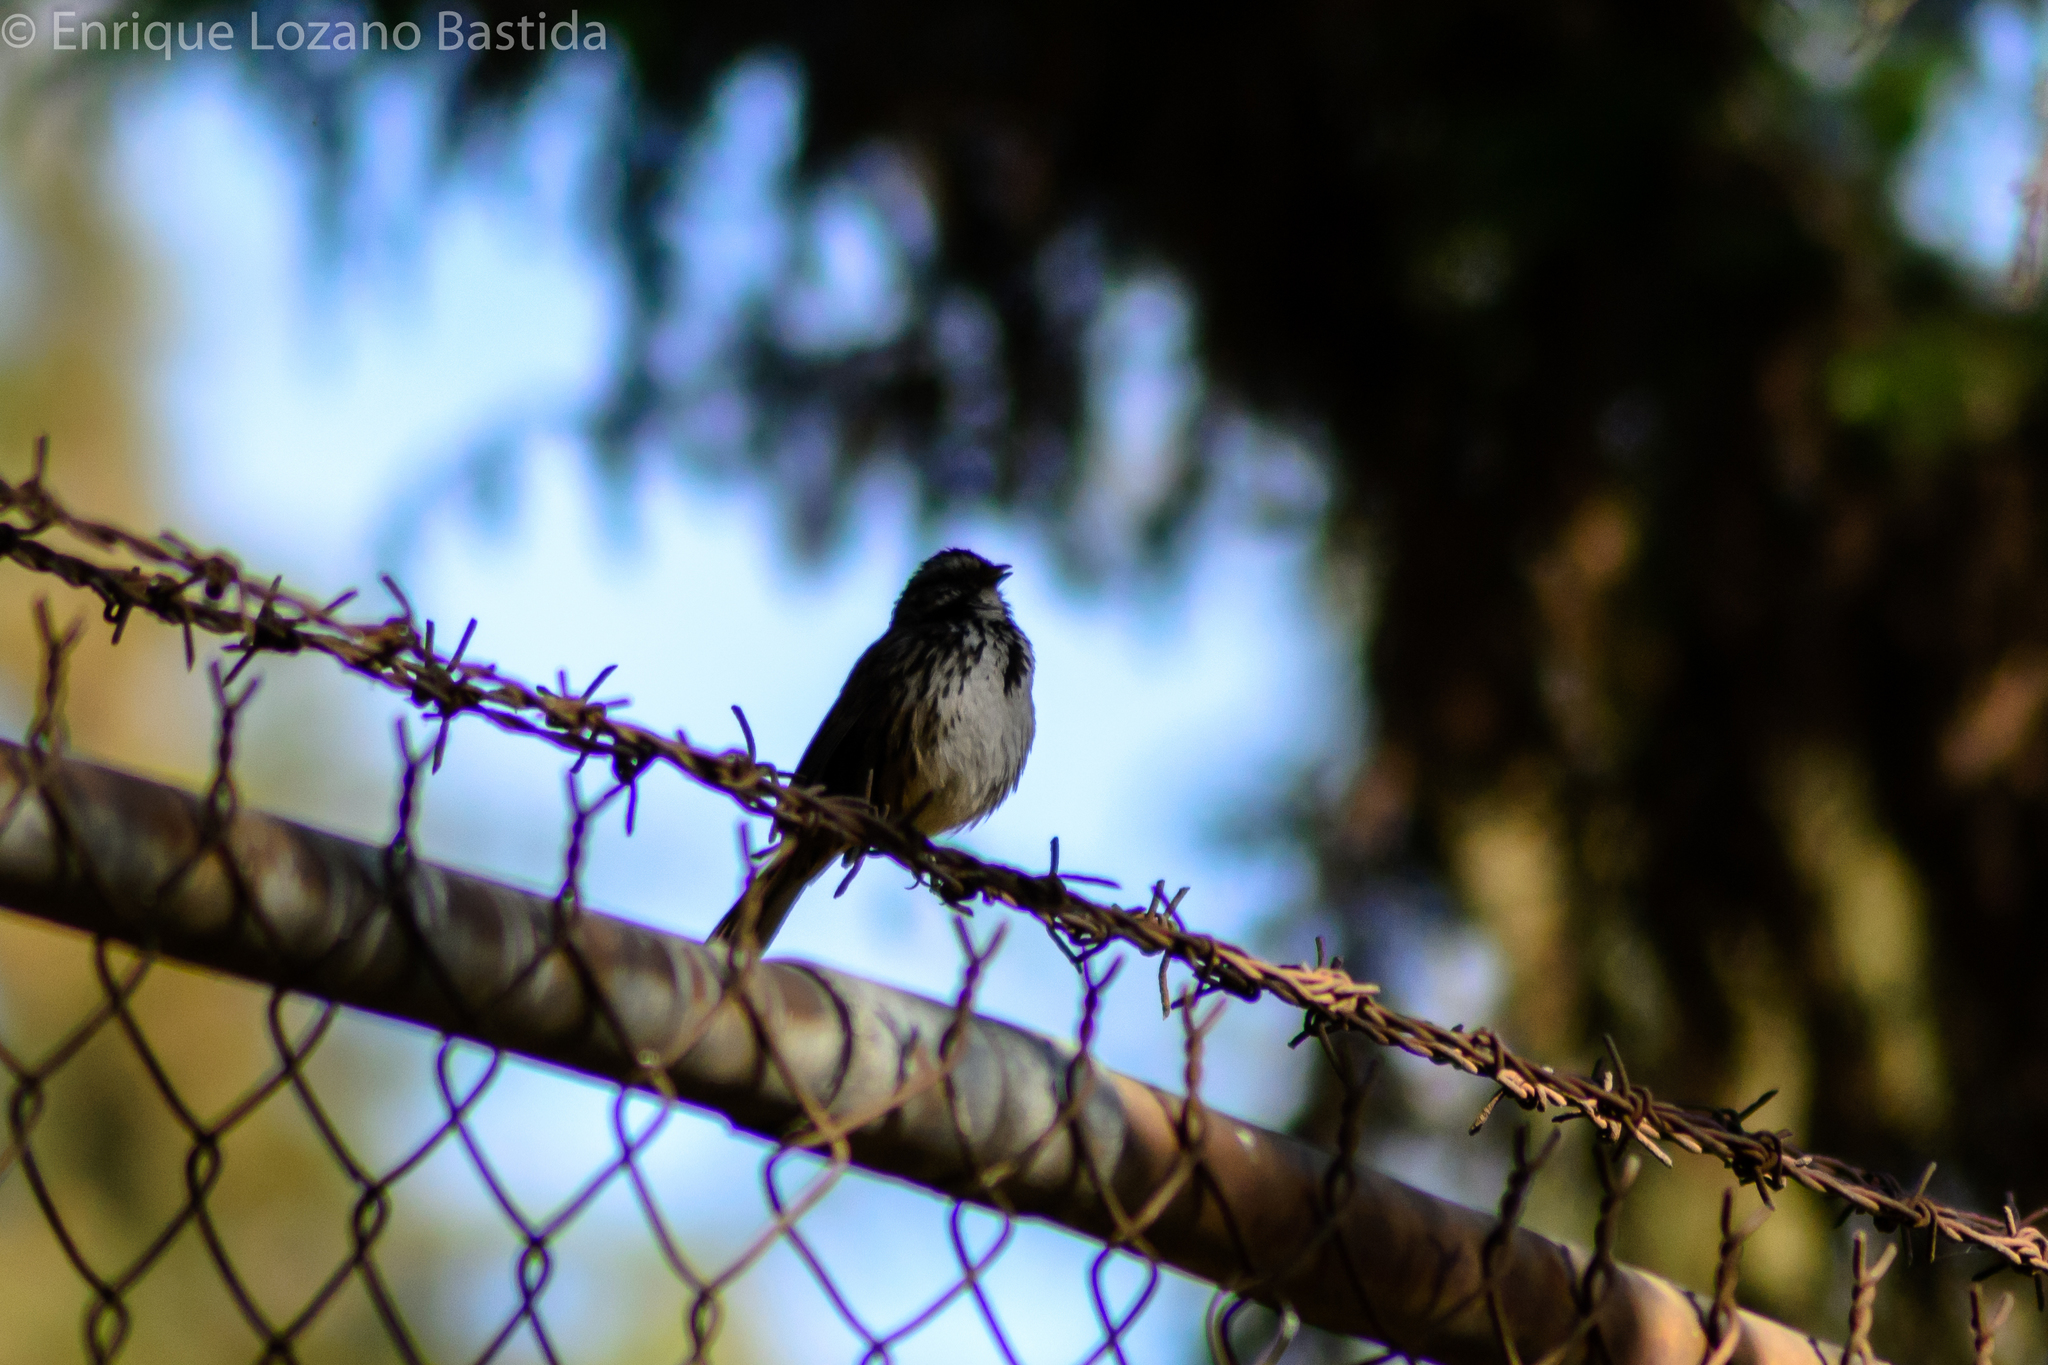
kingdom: Animalia
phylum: Chordata
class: Aves
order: Passeriformes
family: Passerellidae
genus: Melospiza
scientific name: Melospiza melodia
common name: Song sparrow
